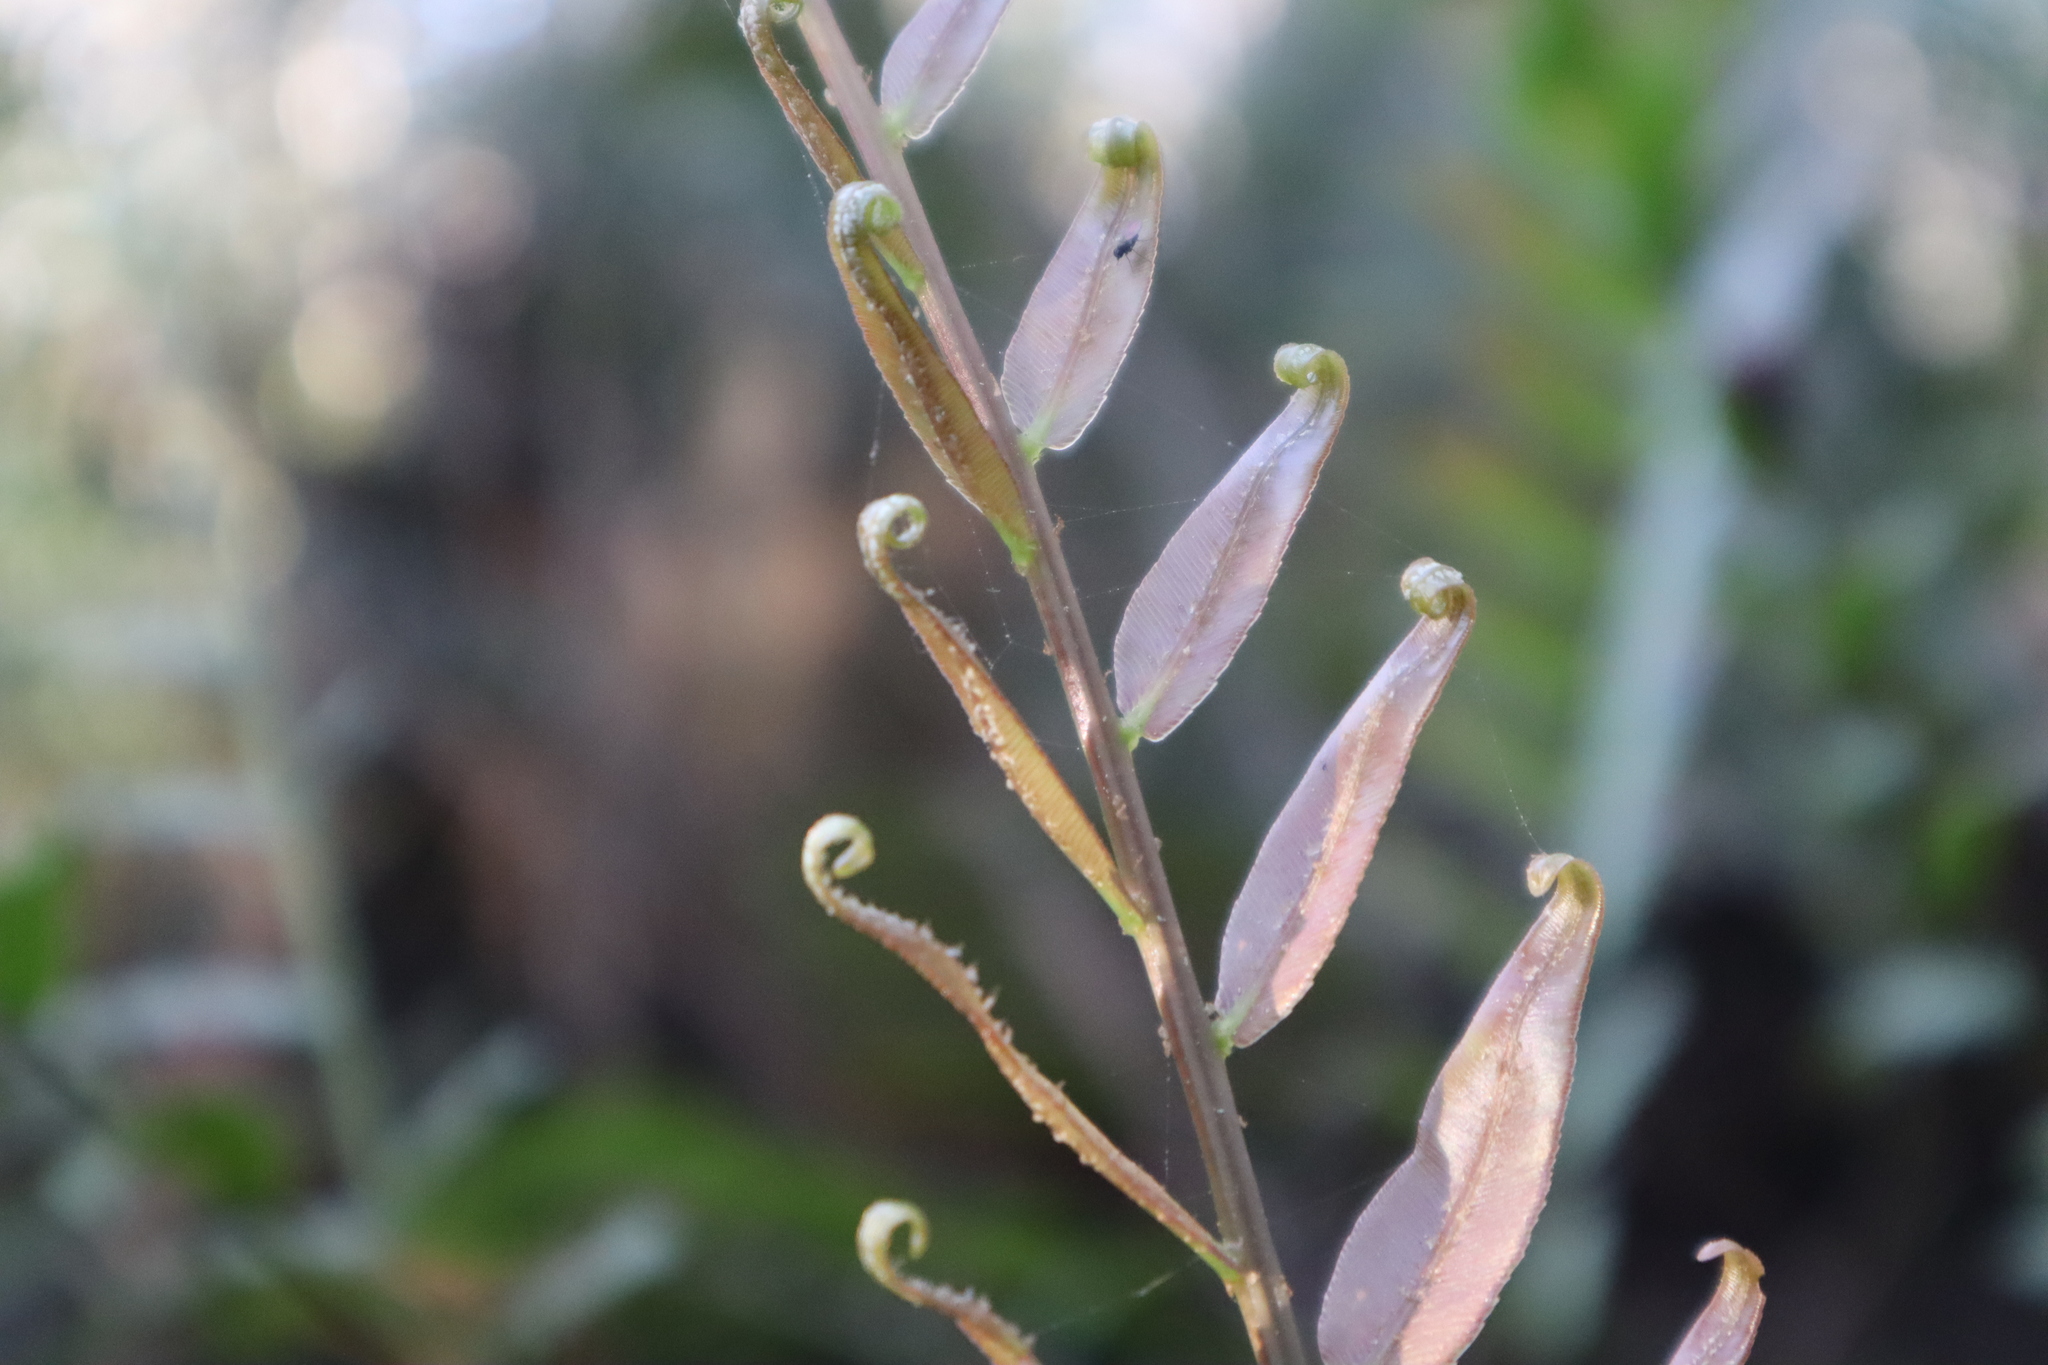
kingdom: Plantae
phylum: Tracheophyta
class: Polypodiopsida
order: Polypodiales
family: Blechnaceae
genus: Telmatoblechnum
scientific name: Telmatoblechnum serrulatum
